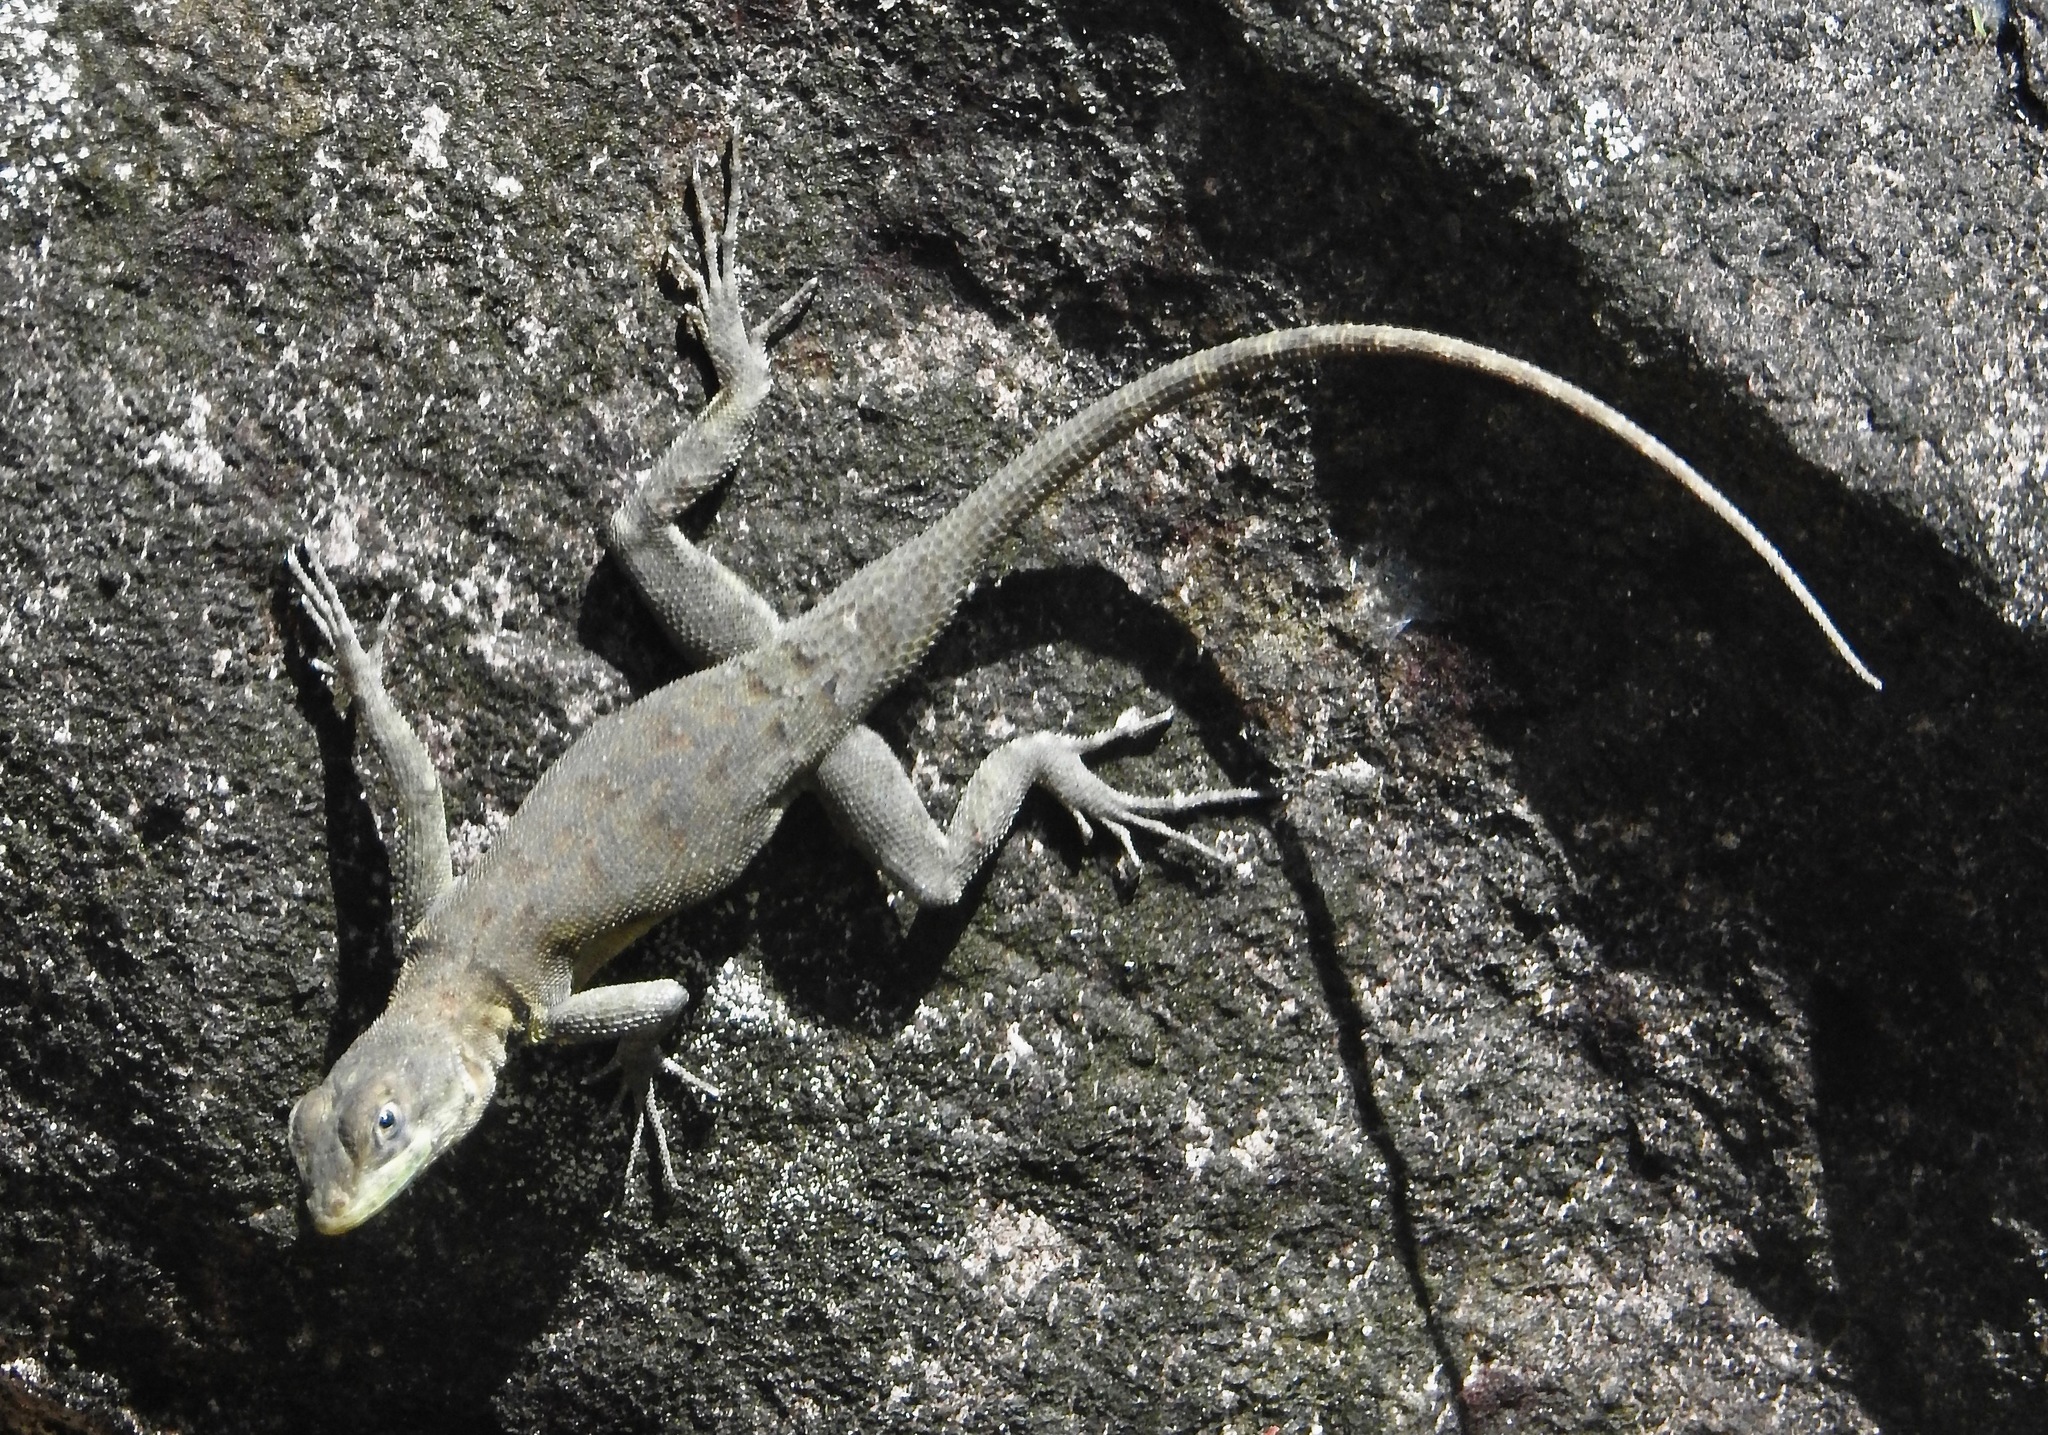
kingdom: Animalia
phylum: Chordata
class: Squamata
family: Tropiduridae
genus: Tropidurus
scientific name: Tropidurus hispidus
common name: Peters' lava lizard
